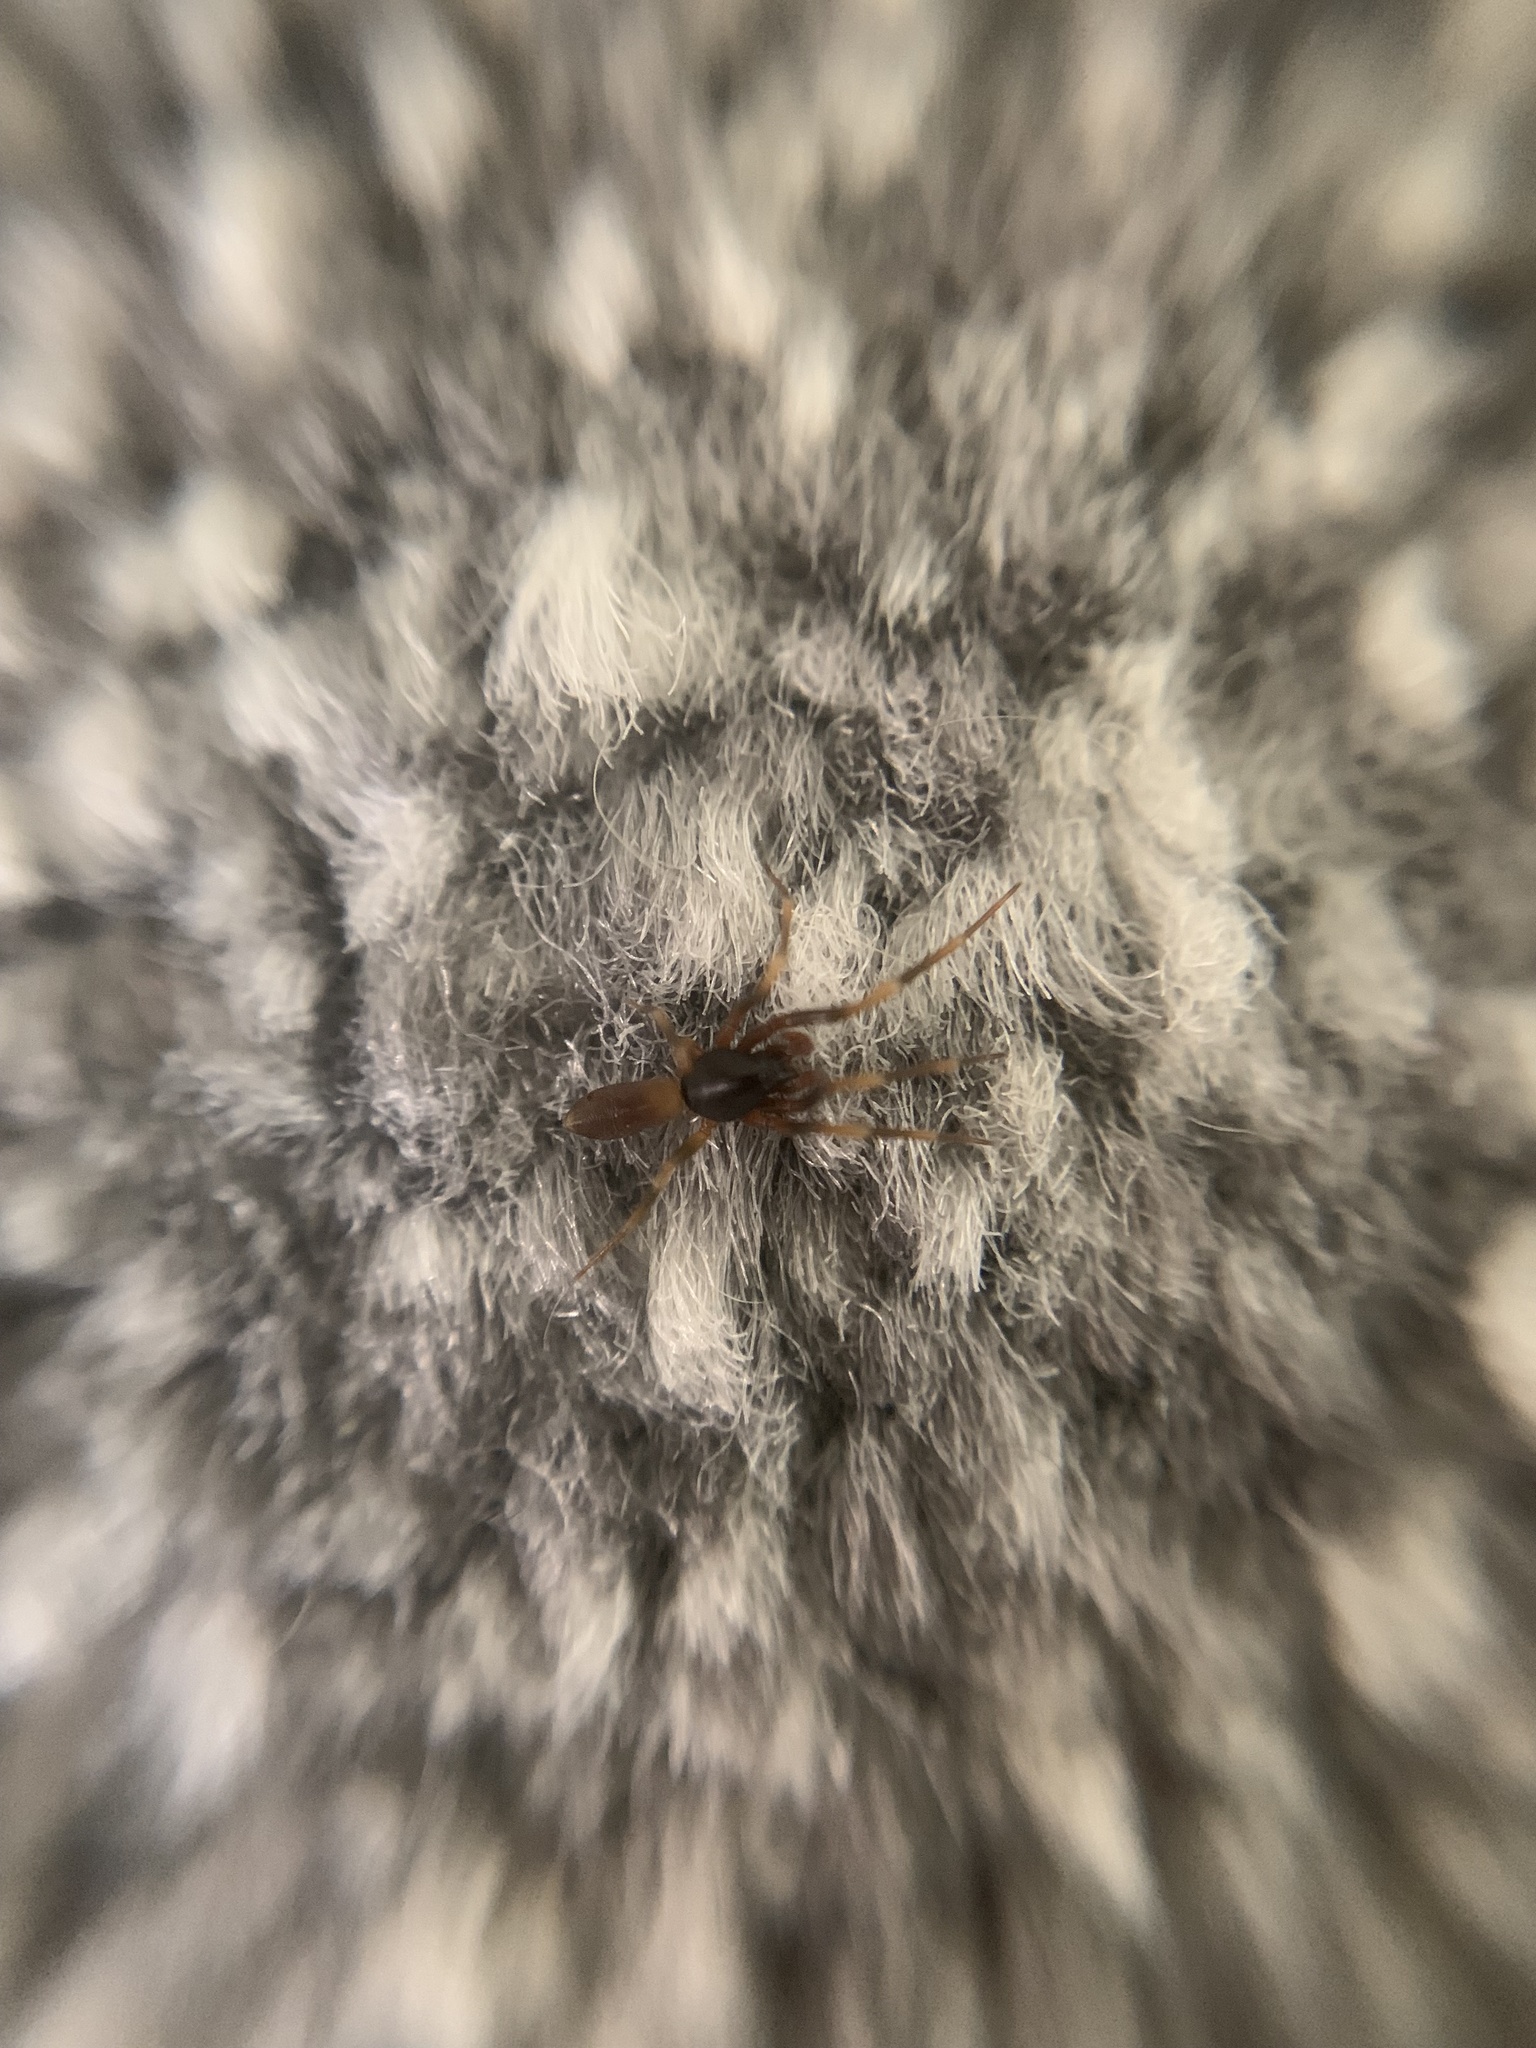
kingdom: Animalia
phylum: Arthropoda
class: Arachnida
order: Araneae
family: Dysderidae
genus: Harpactea
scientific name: Harpactea hombergi
